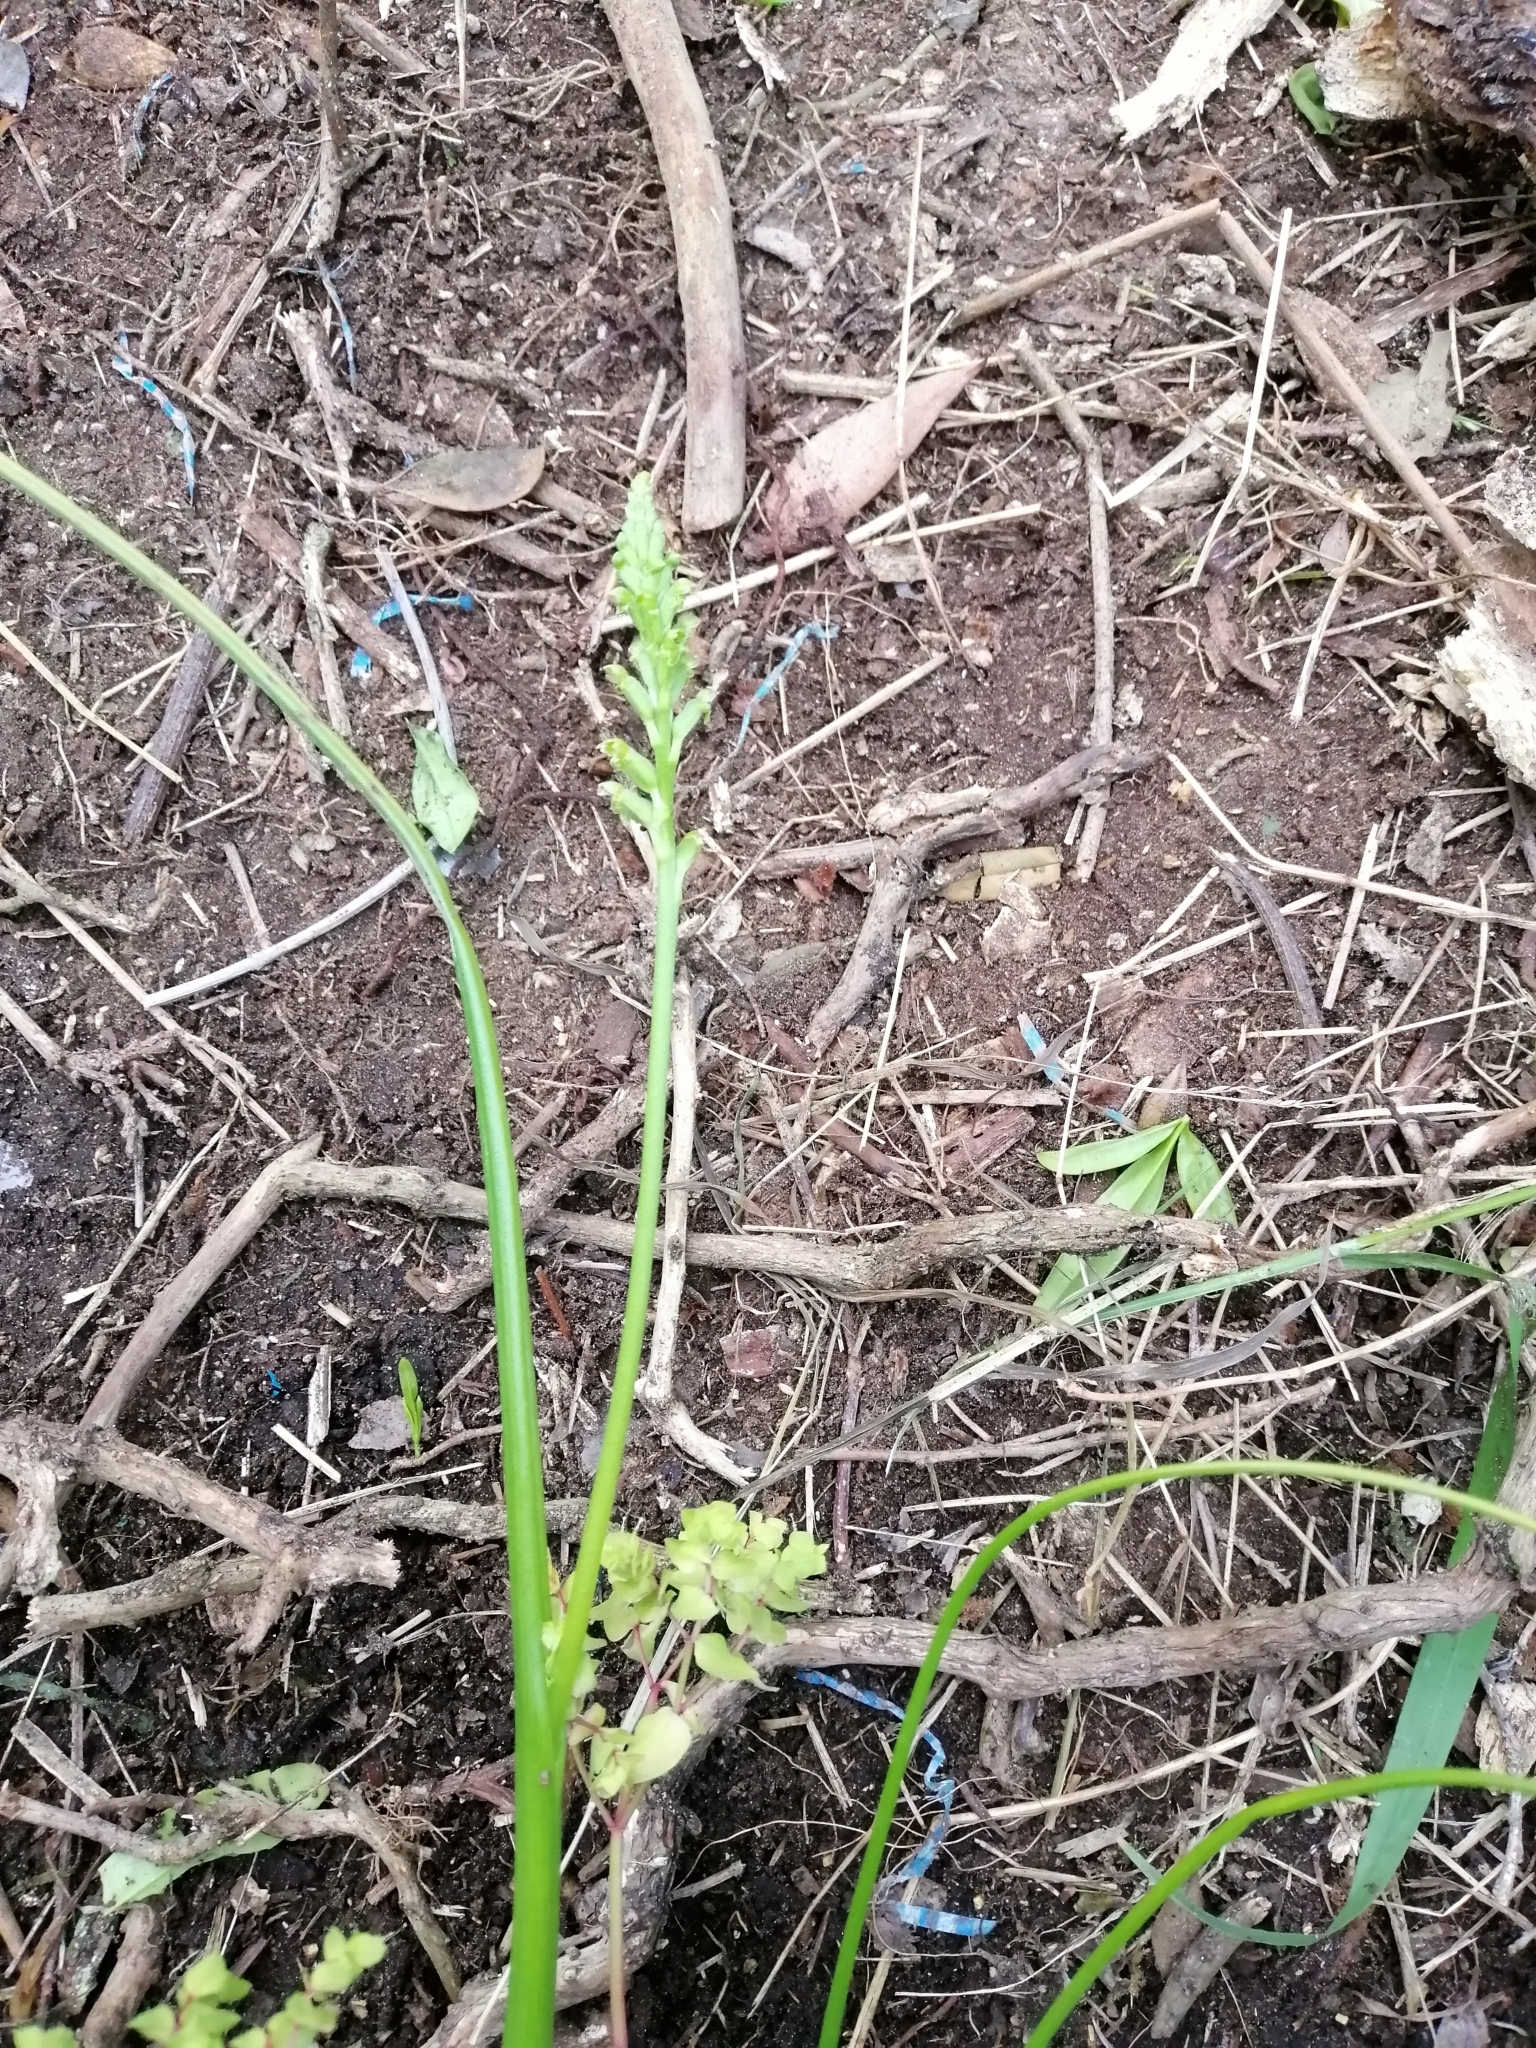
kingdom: Plantae
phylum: Tracheophyta
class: Liliopsida
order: Asparagales
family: Orchidaceae
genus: Microtis
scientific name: Microtis unifolia
